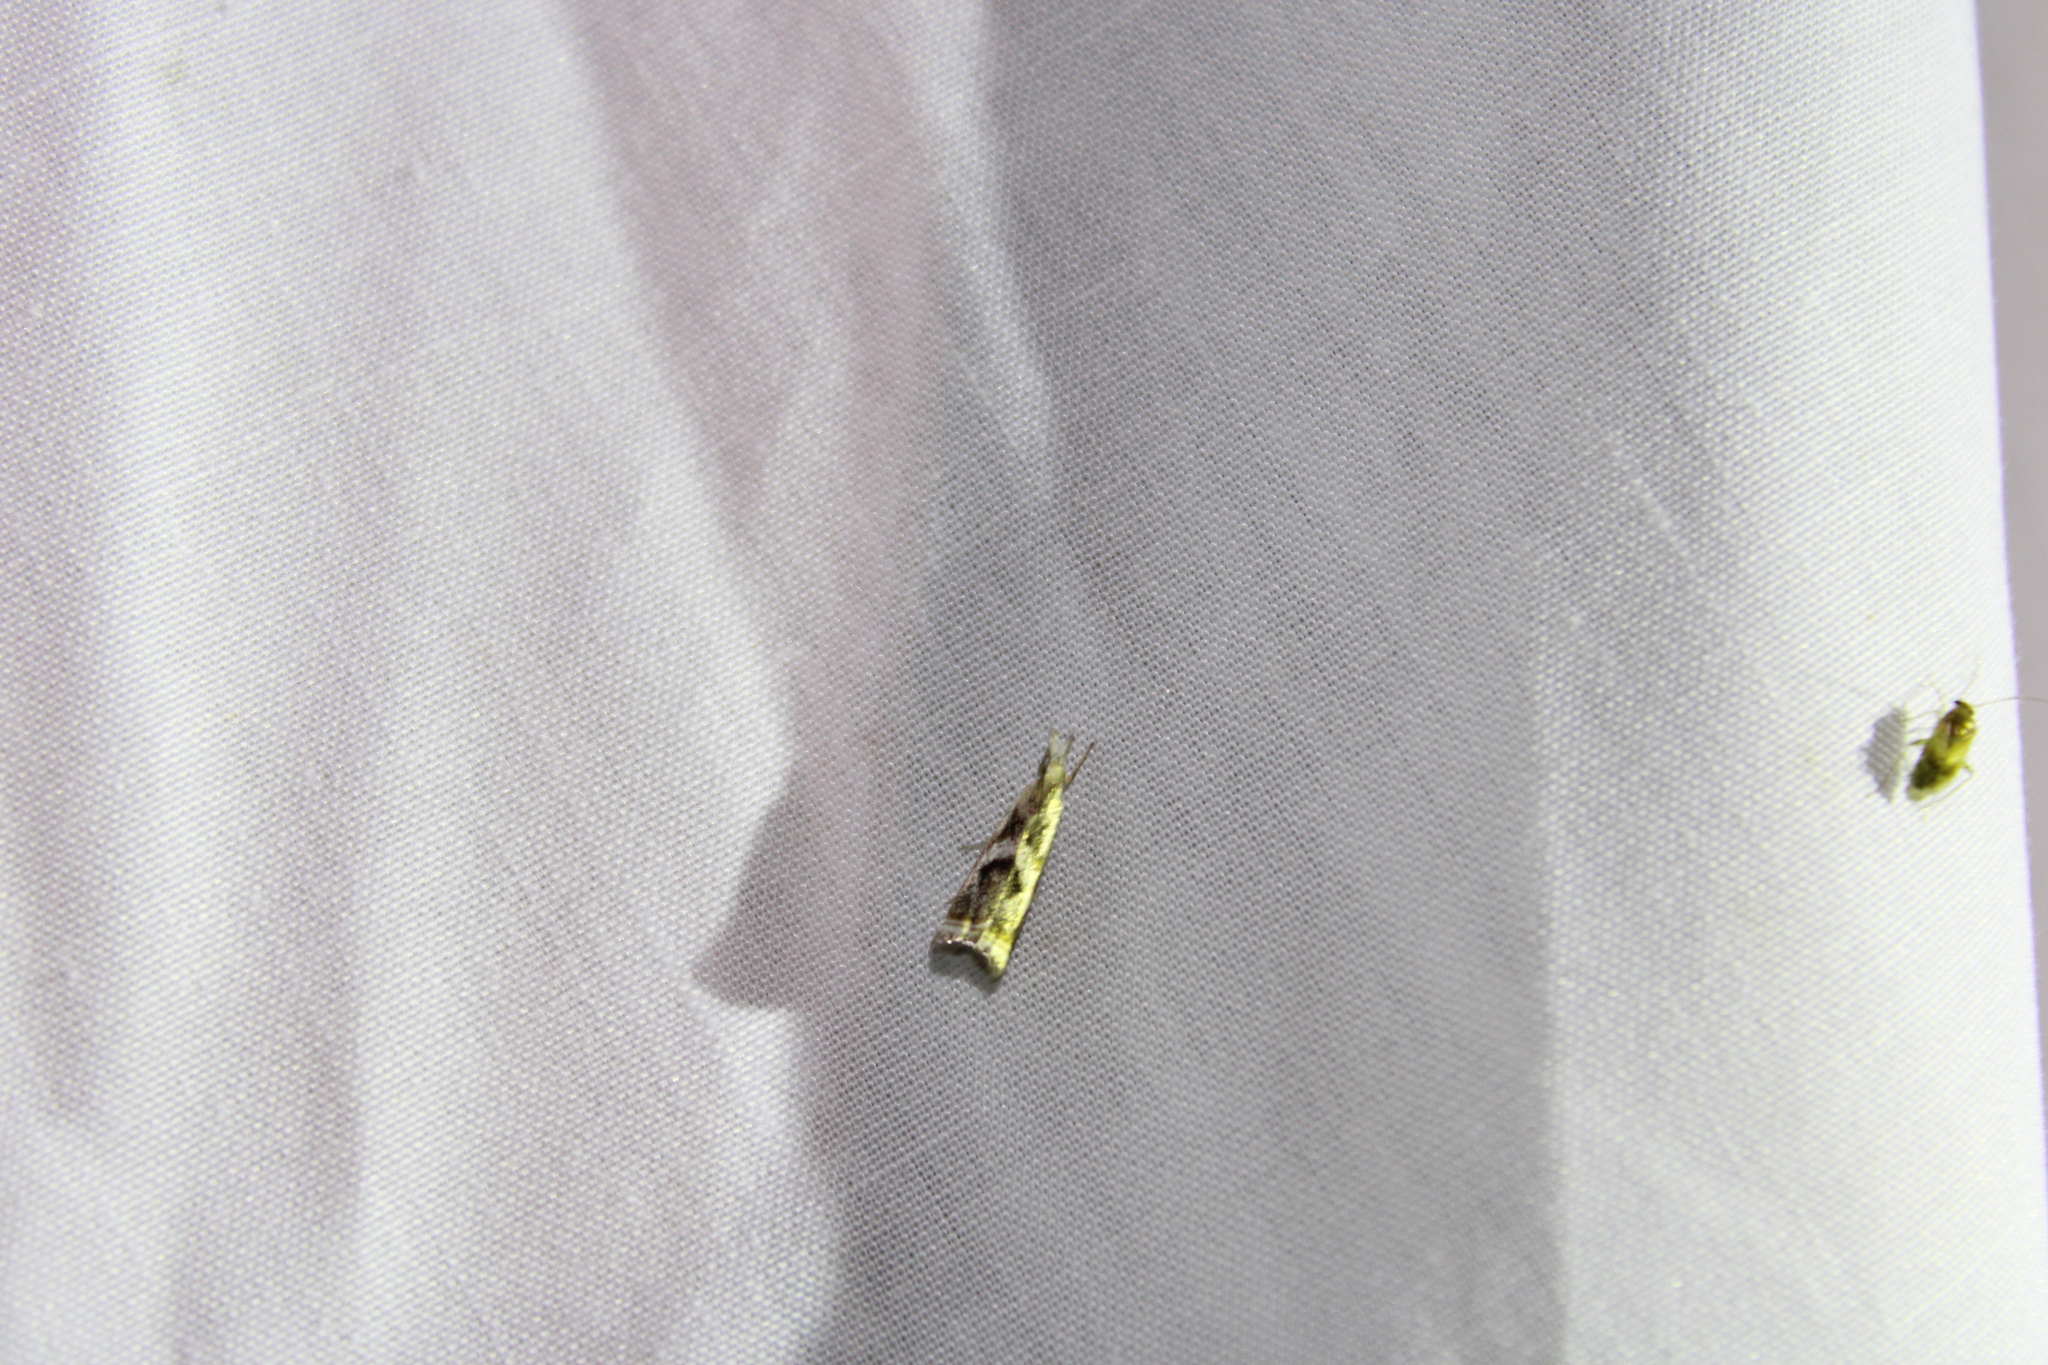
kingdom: Animalia
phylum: Arthropoda
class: Insecta
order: Lepidoptera
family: Crambidae
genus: Microcrambus
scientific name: Microcrambus elegans
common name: Elegant grass-veneer
